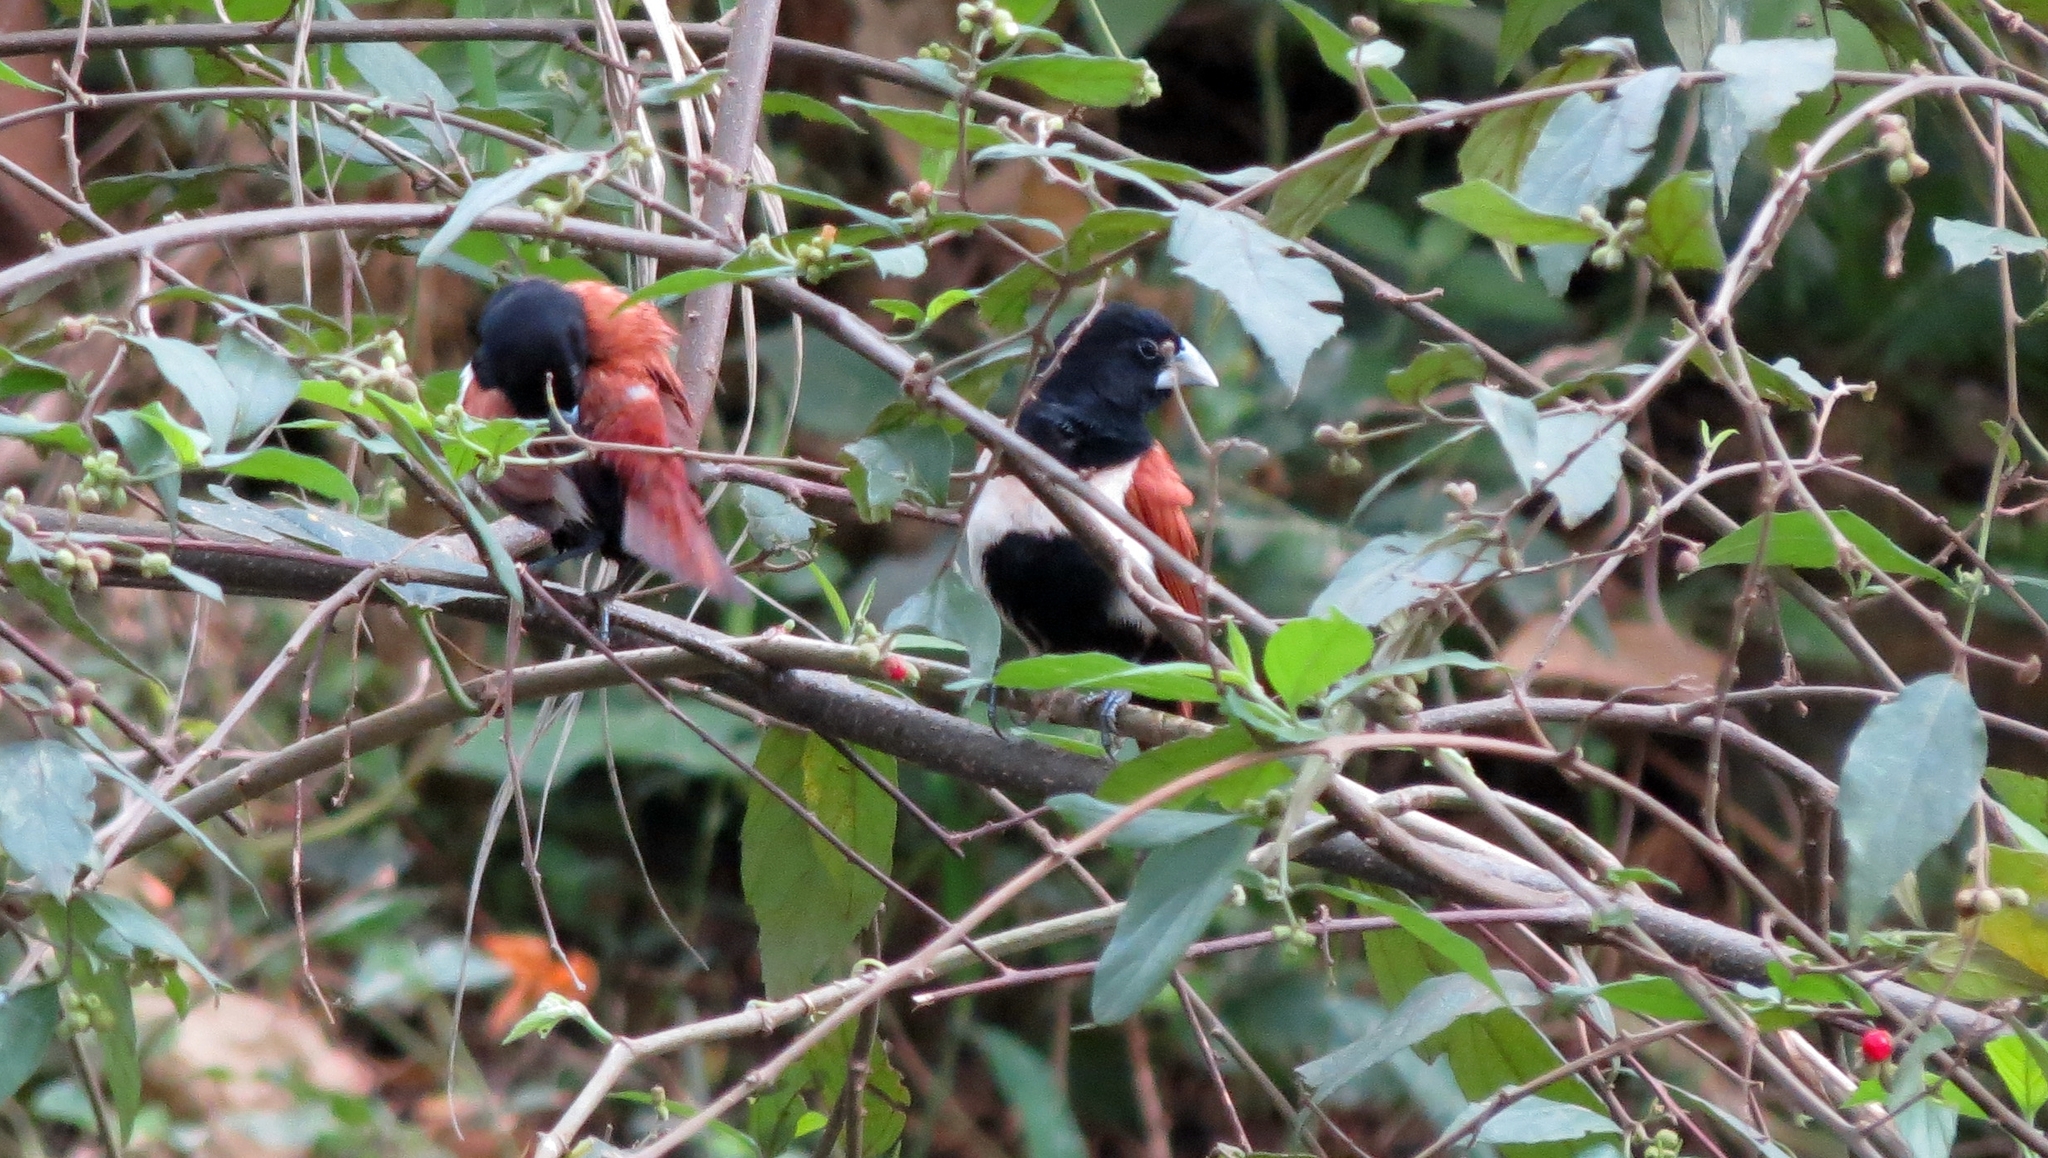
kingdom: Animalia
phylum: Chordata
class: Aves
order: Passeriformes
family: Estrildidae
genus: Lonchura
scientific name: Lonchura malacca
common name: Tricolored munia
